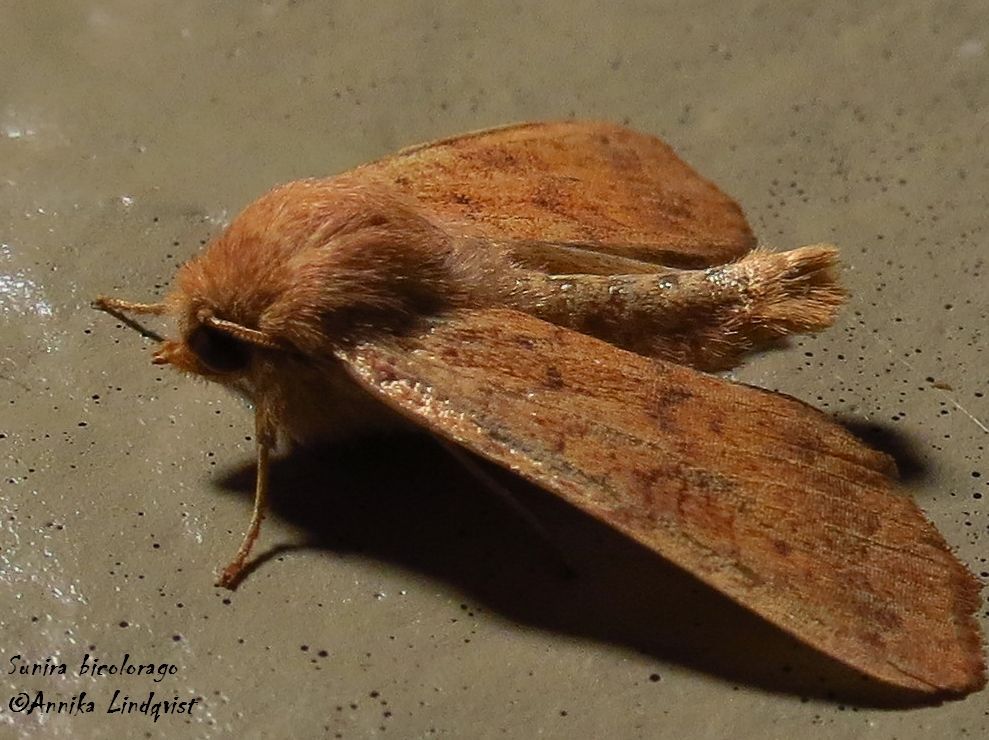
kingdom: Animalia
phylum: Arthropoda
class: Insecta
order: Lepidoptera
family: Noctuidae
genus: Agrochola
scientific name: Agrochola bicolorago
